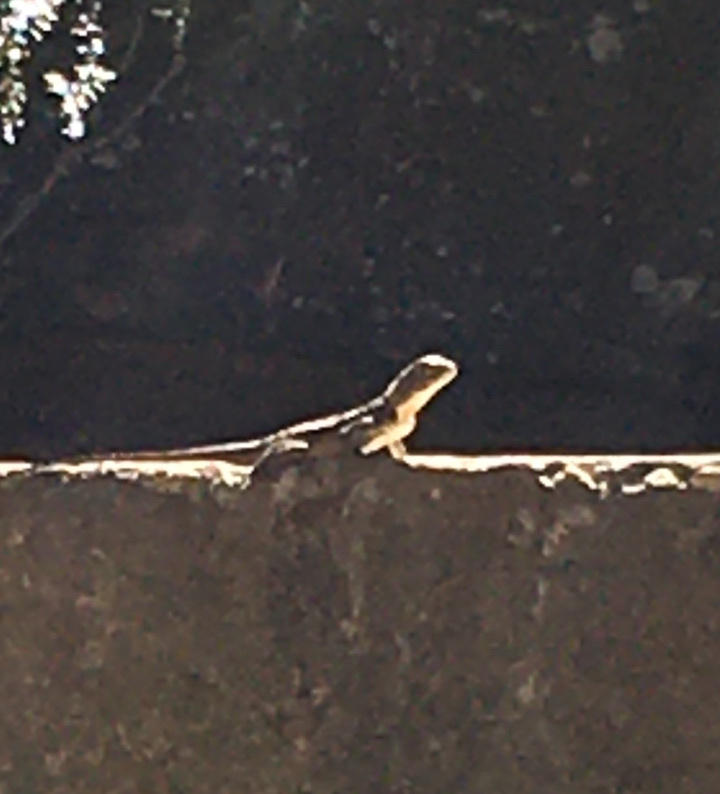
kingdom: Animalia
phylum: Chordata
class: Squamata
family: Agamidae
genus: Agama
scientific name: Agama atra
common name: Southern african rock agama
